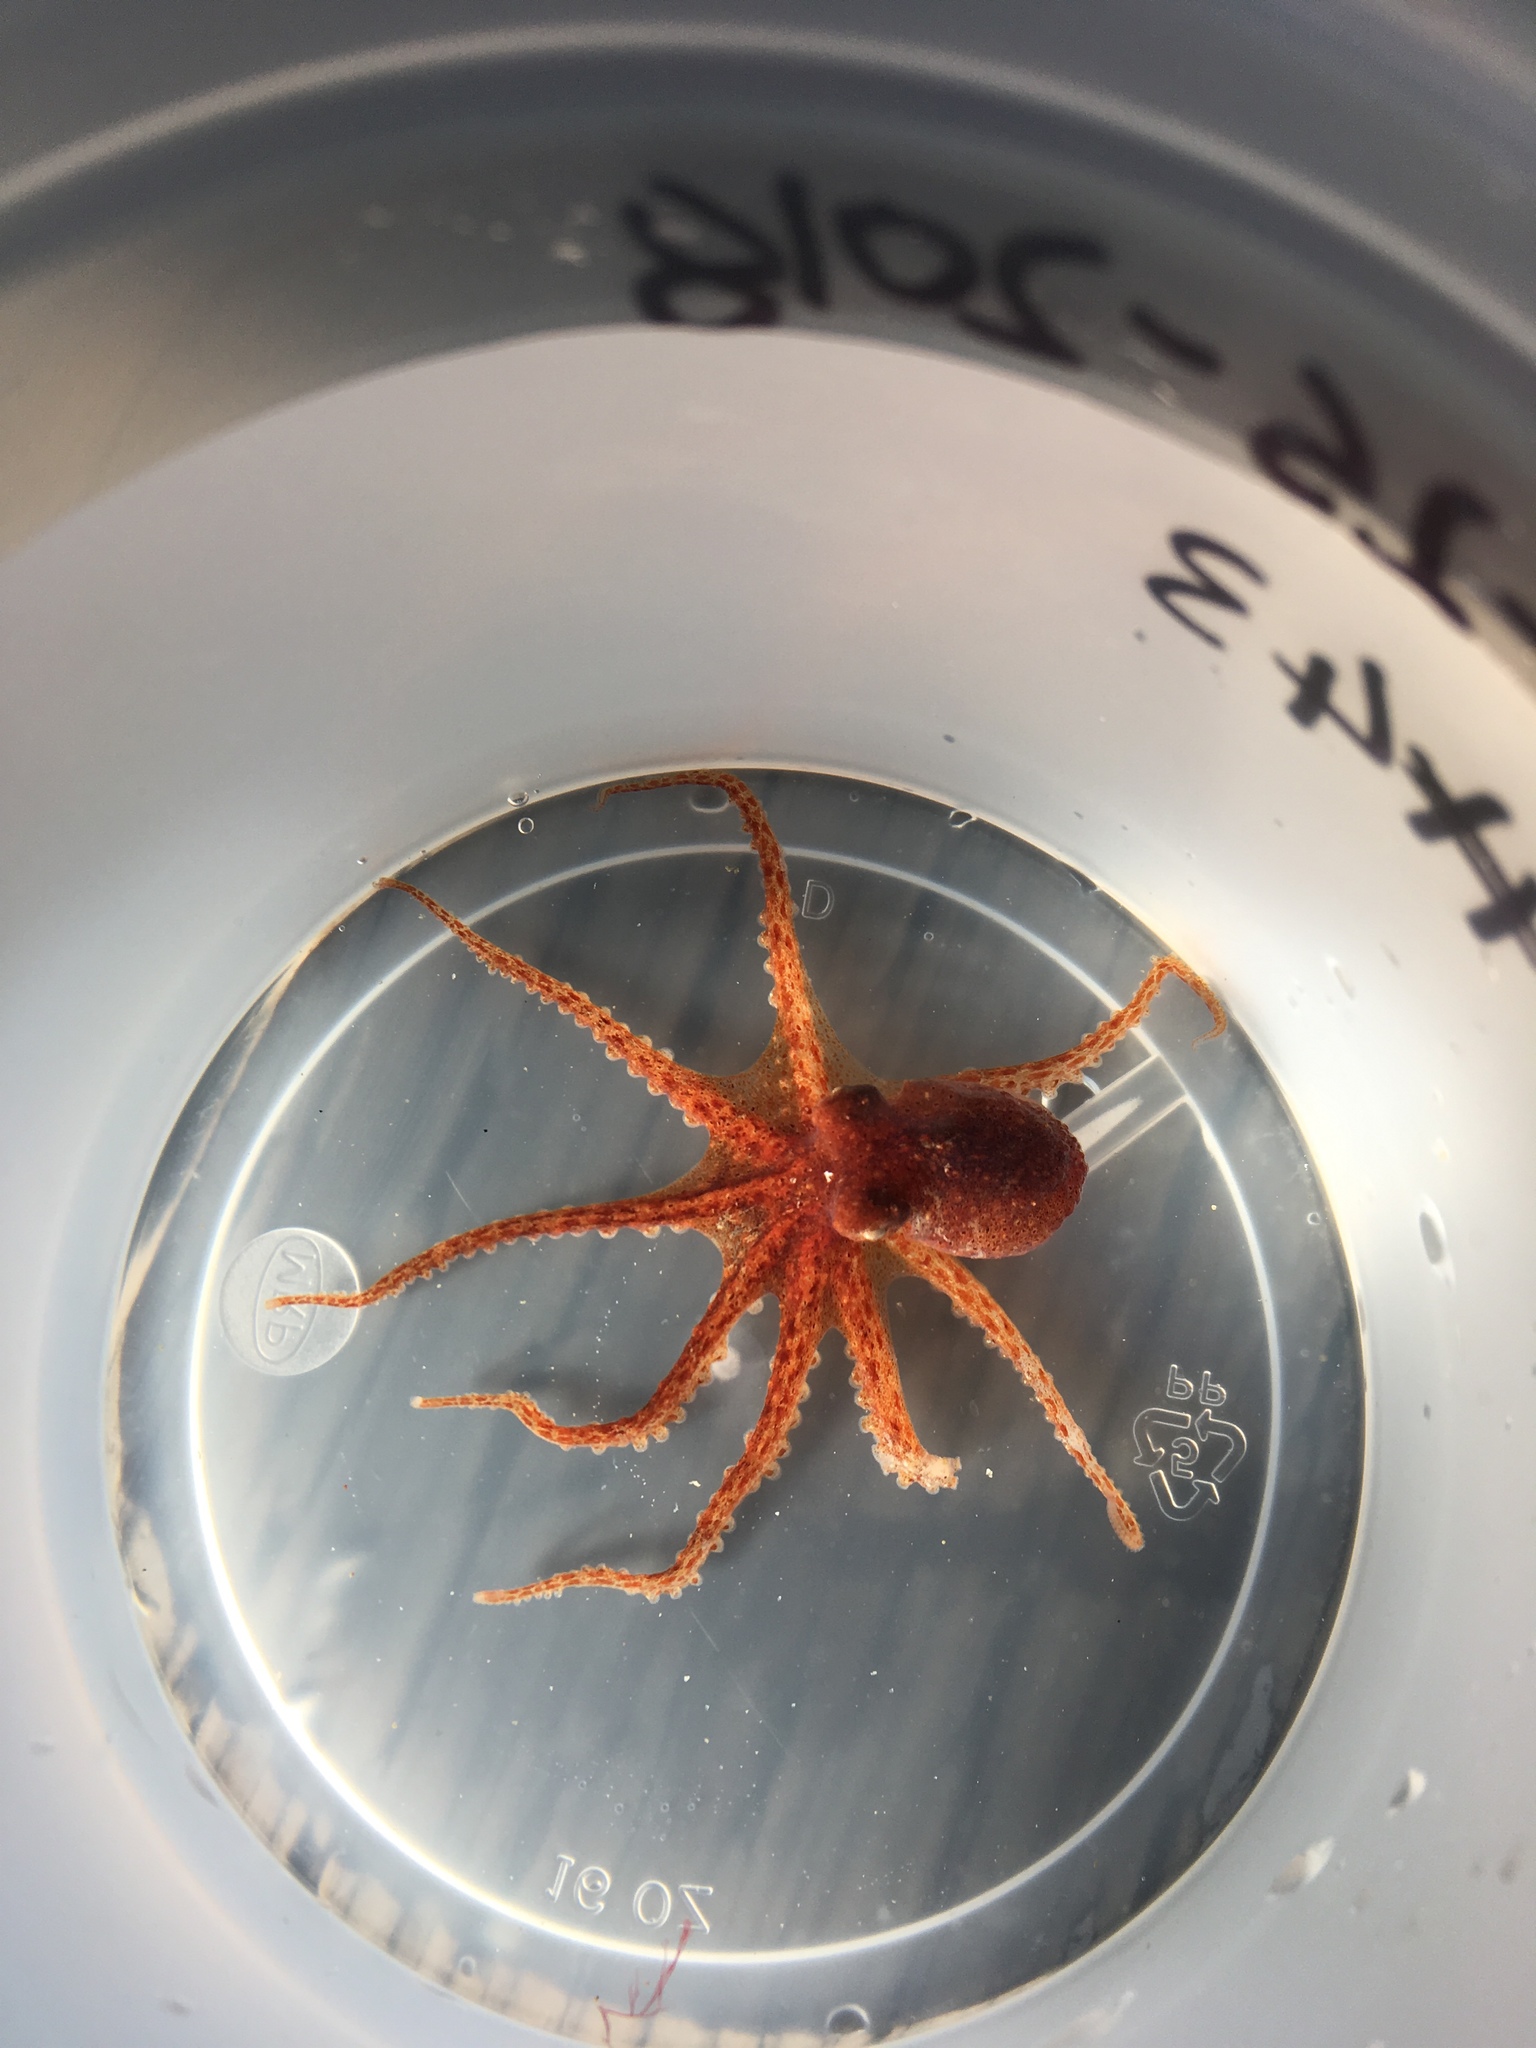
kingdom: Animalia
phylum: Mollusca
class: Cephalopoda
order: Octopoda
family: Enteroctopodidae
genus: Enteroctopus
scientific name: Enteroctopus dofleini
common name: Giant north pacific octopus
